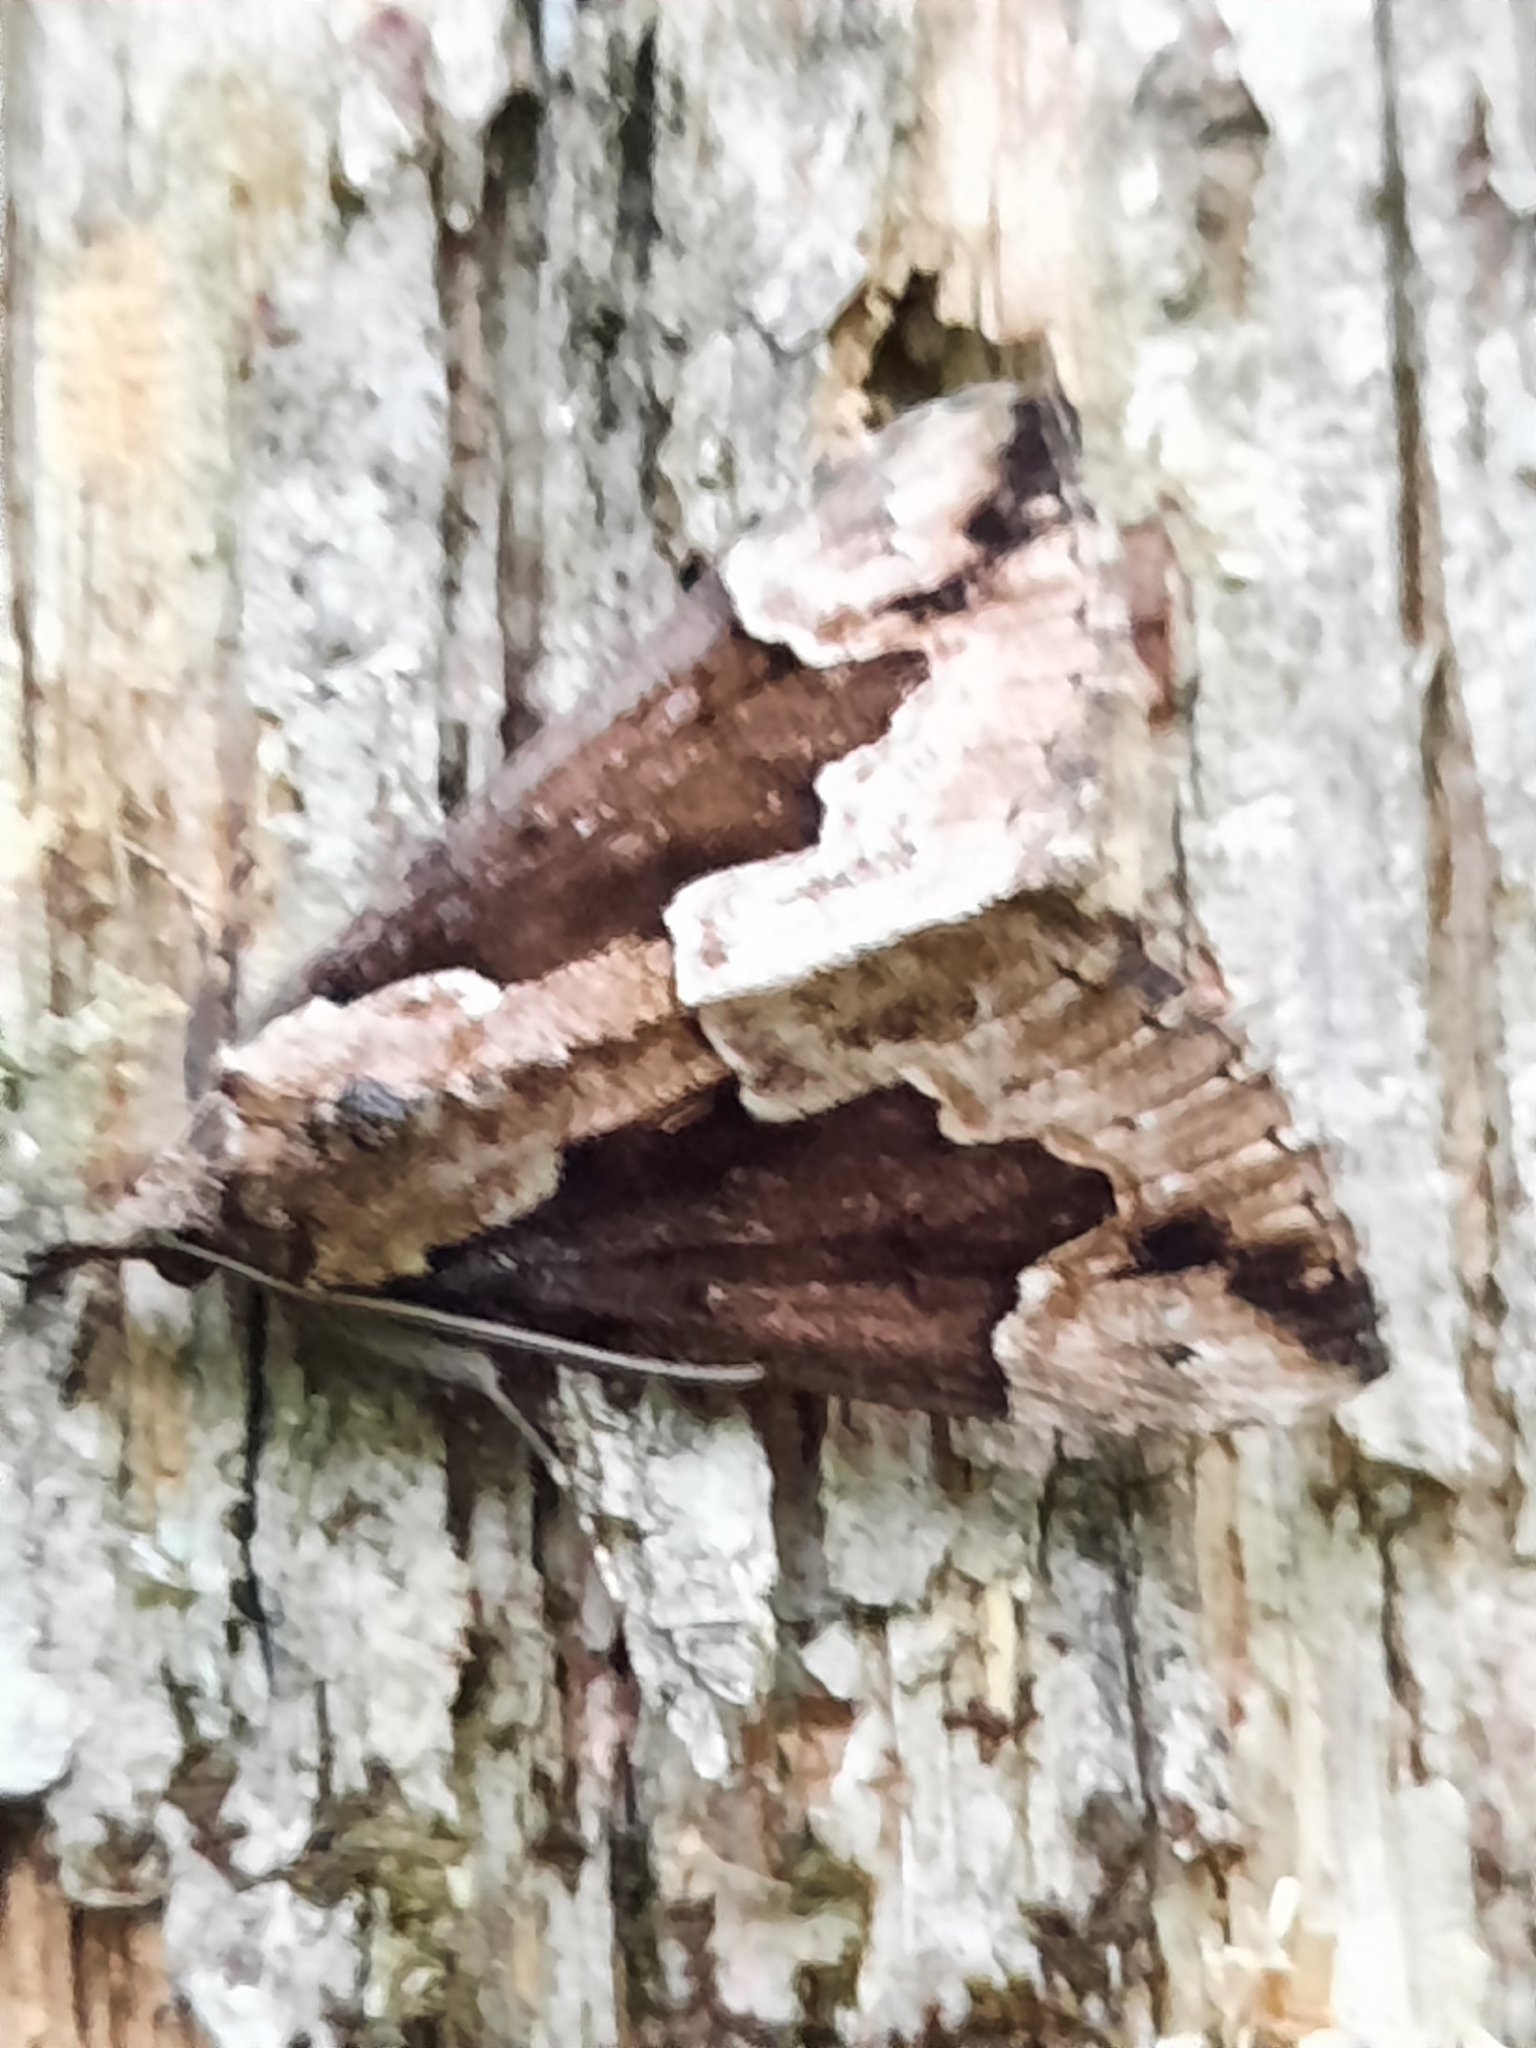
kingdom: Animalia
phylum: Arthropoda
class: Insecta
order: Lepidoptera
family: Erebidae
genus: Hypena
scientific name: Hypena baltimoralis
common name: Baltimore snout
